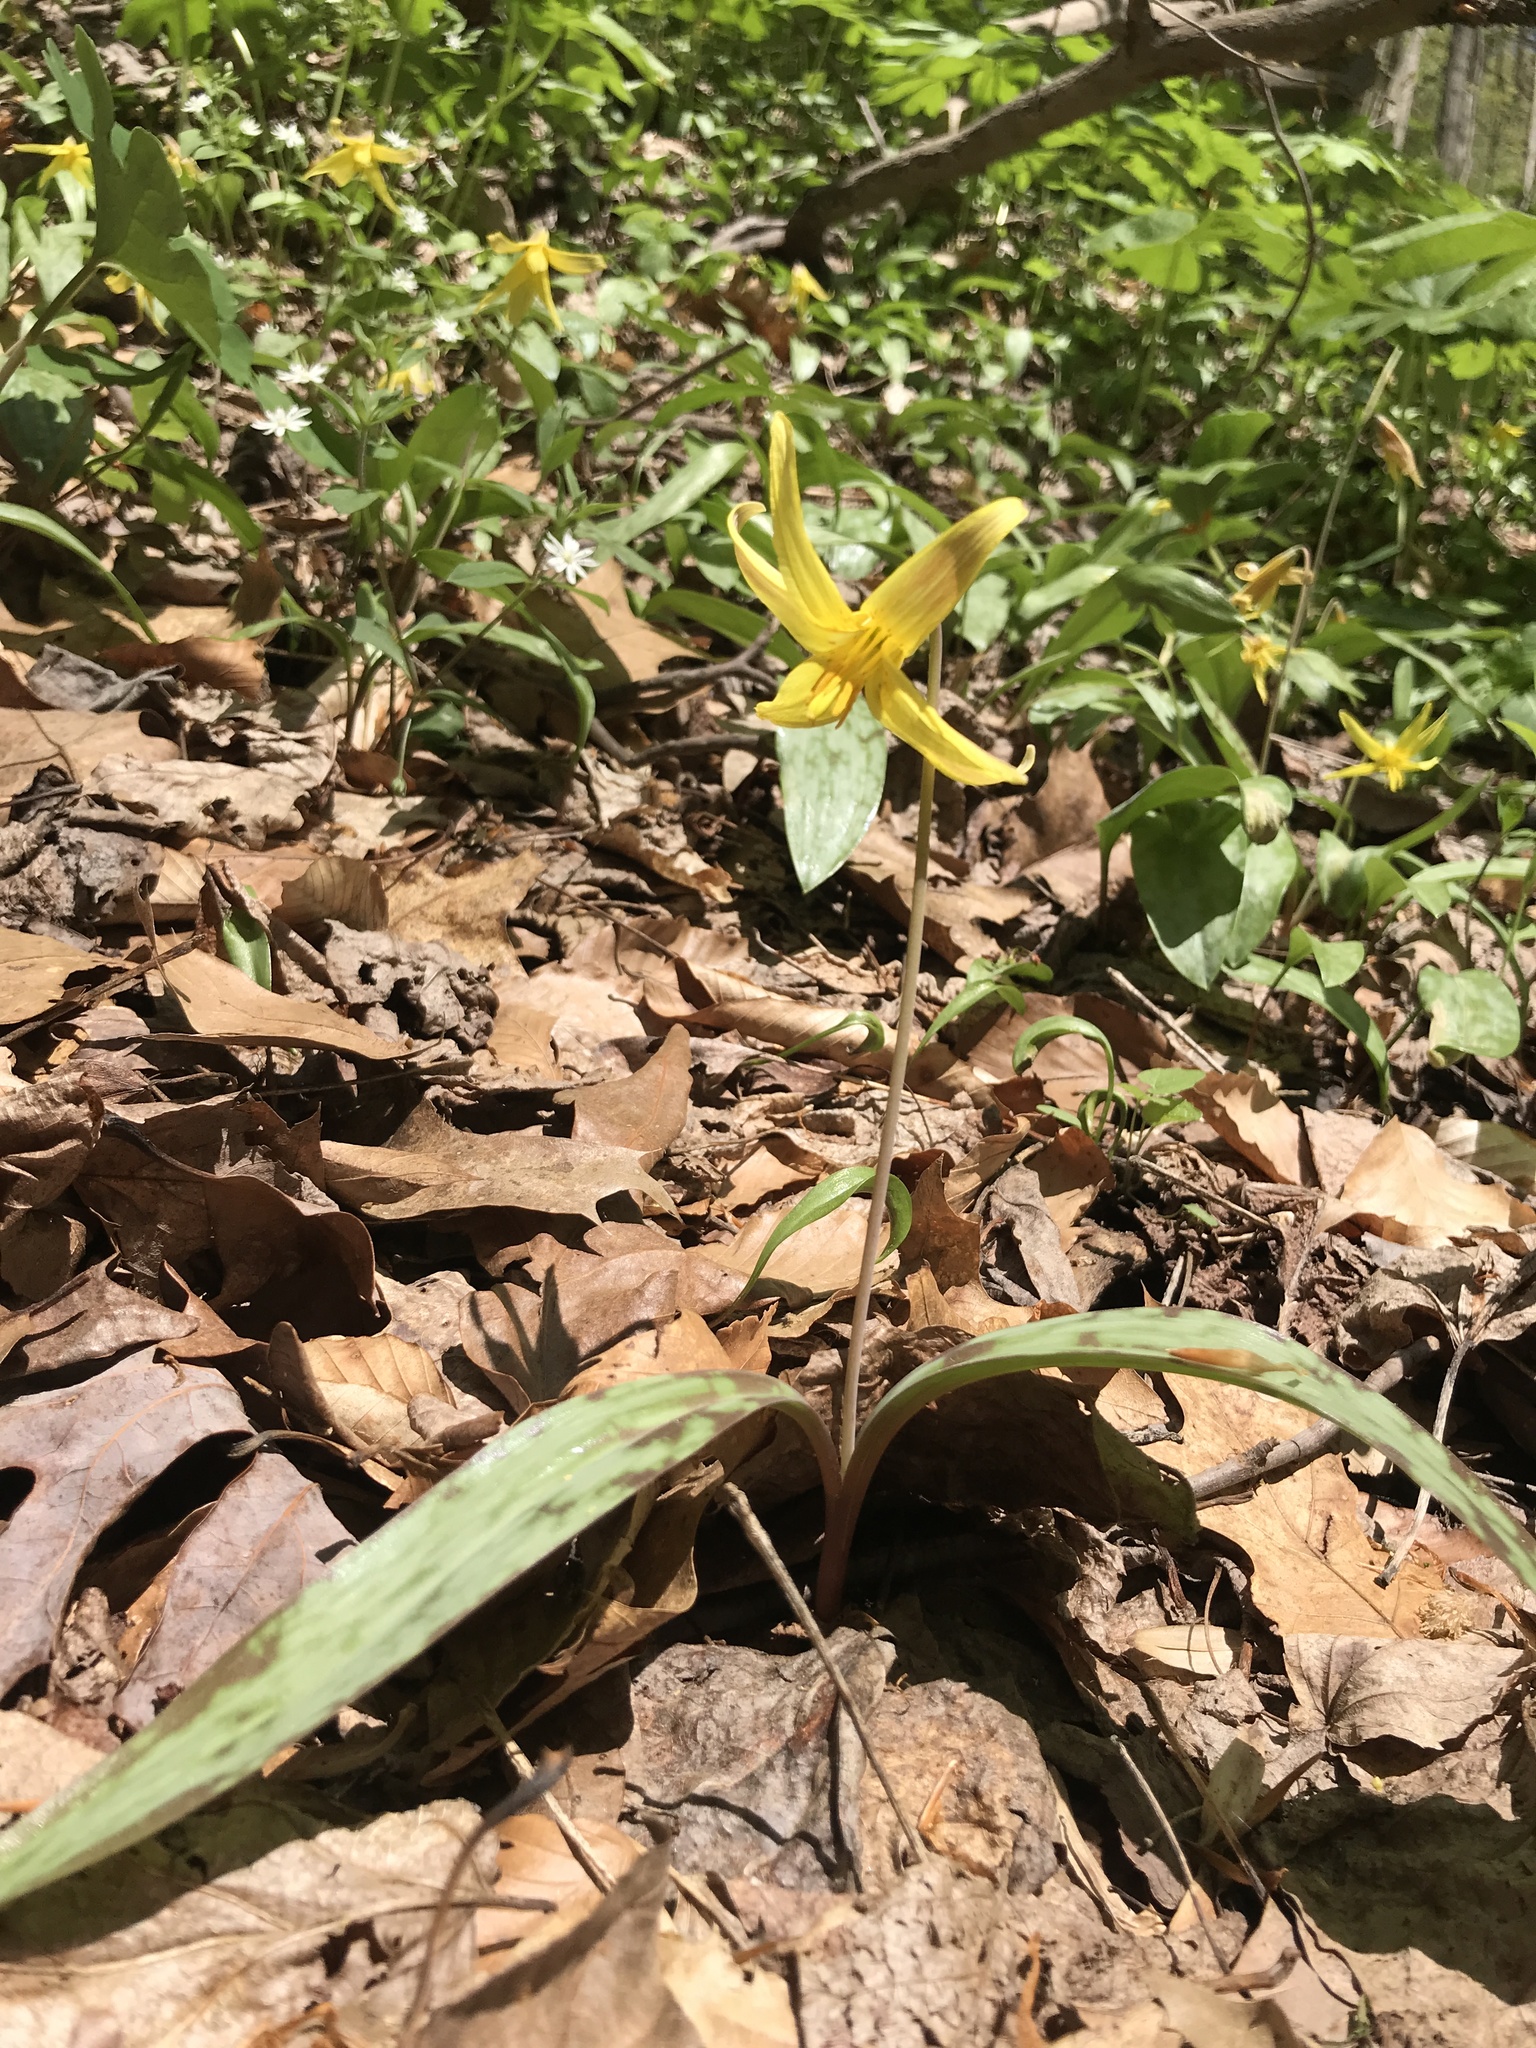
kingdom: Plantae
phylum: Tracheophyta
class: Liliopsida
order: Liliales
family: Liliaceae
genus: Erythronium
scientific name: Erythronium americanum
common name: Yellow adder's-tongue
